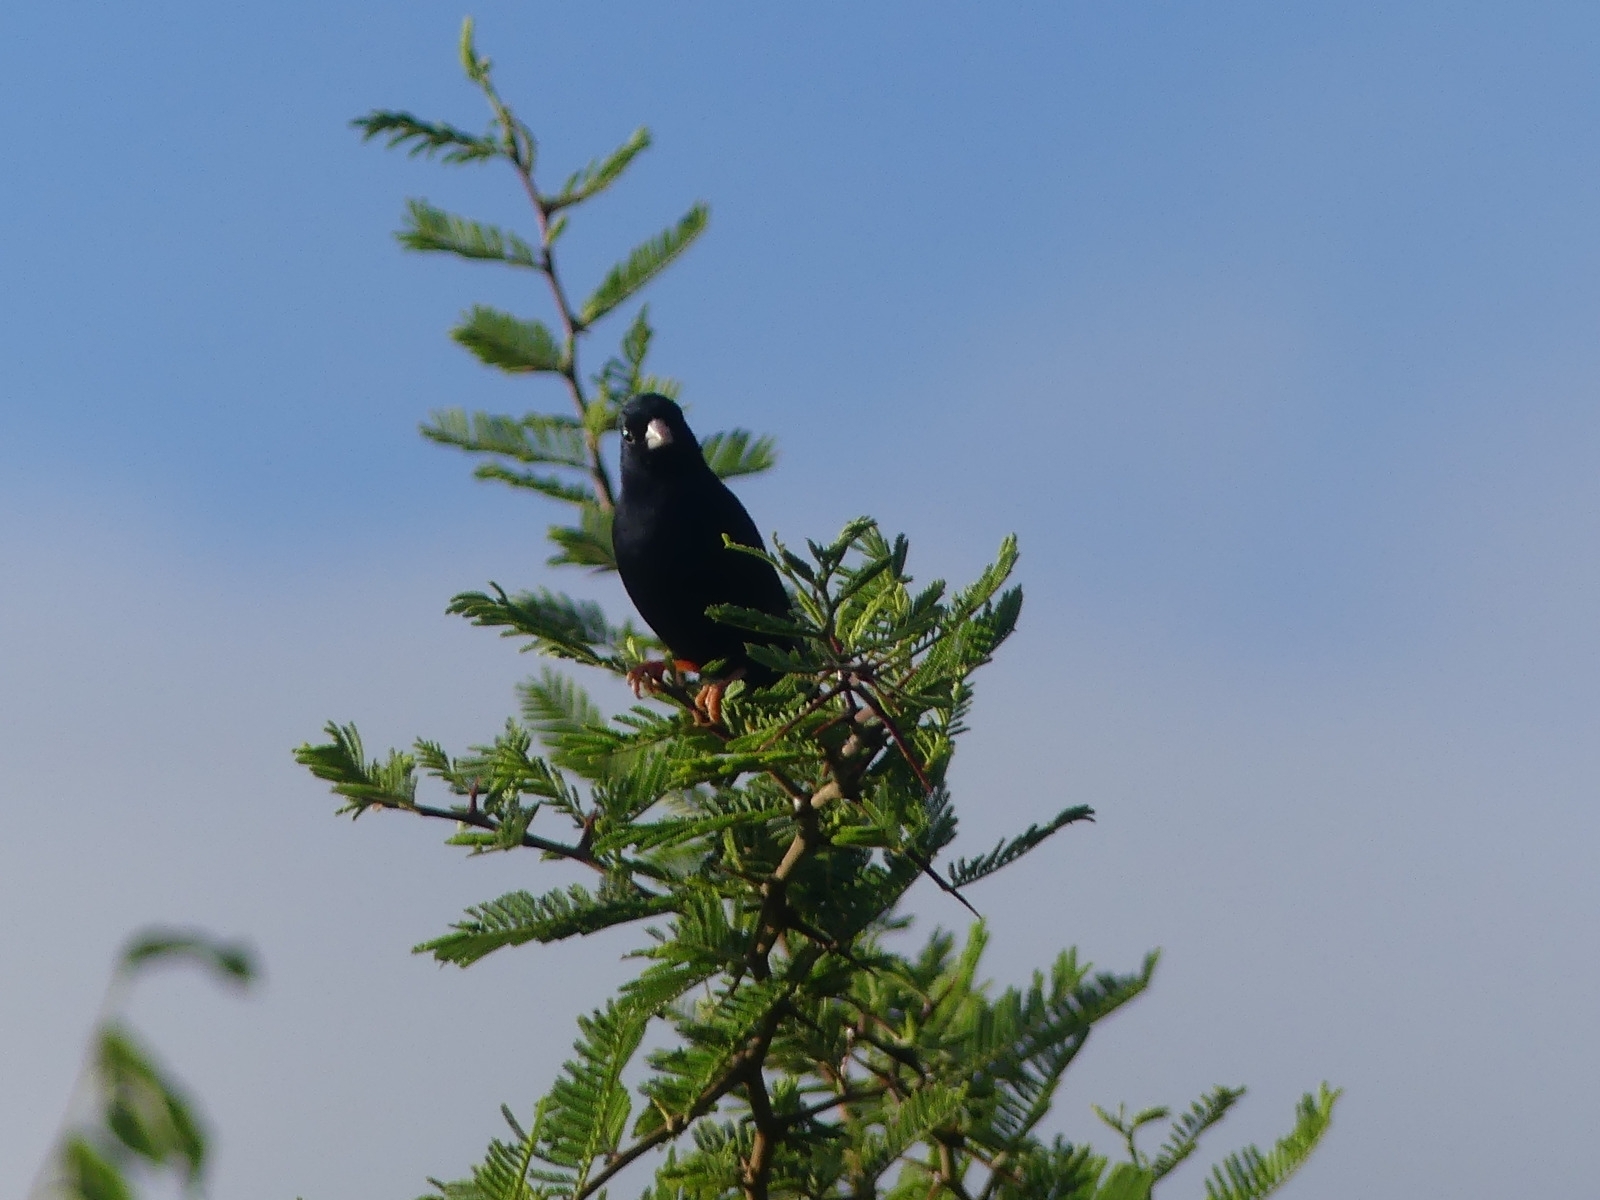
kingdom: Animalia
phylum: Chordata
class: Aves
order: Passeriformes
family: Viduidae
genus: Vidua
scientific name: Vidua chalybeata
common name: Village indigobird
